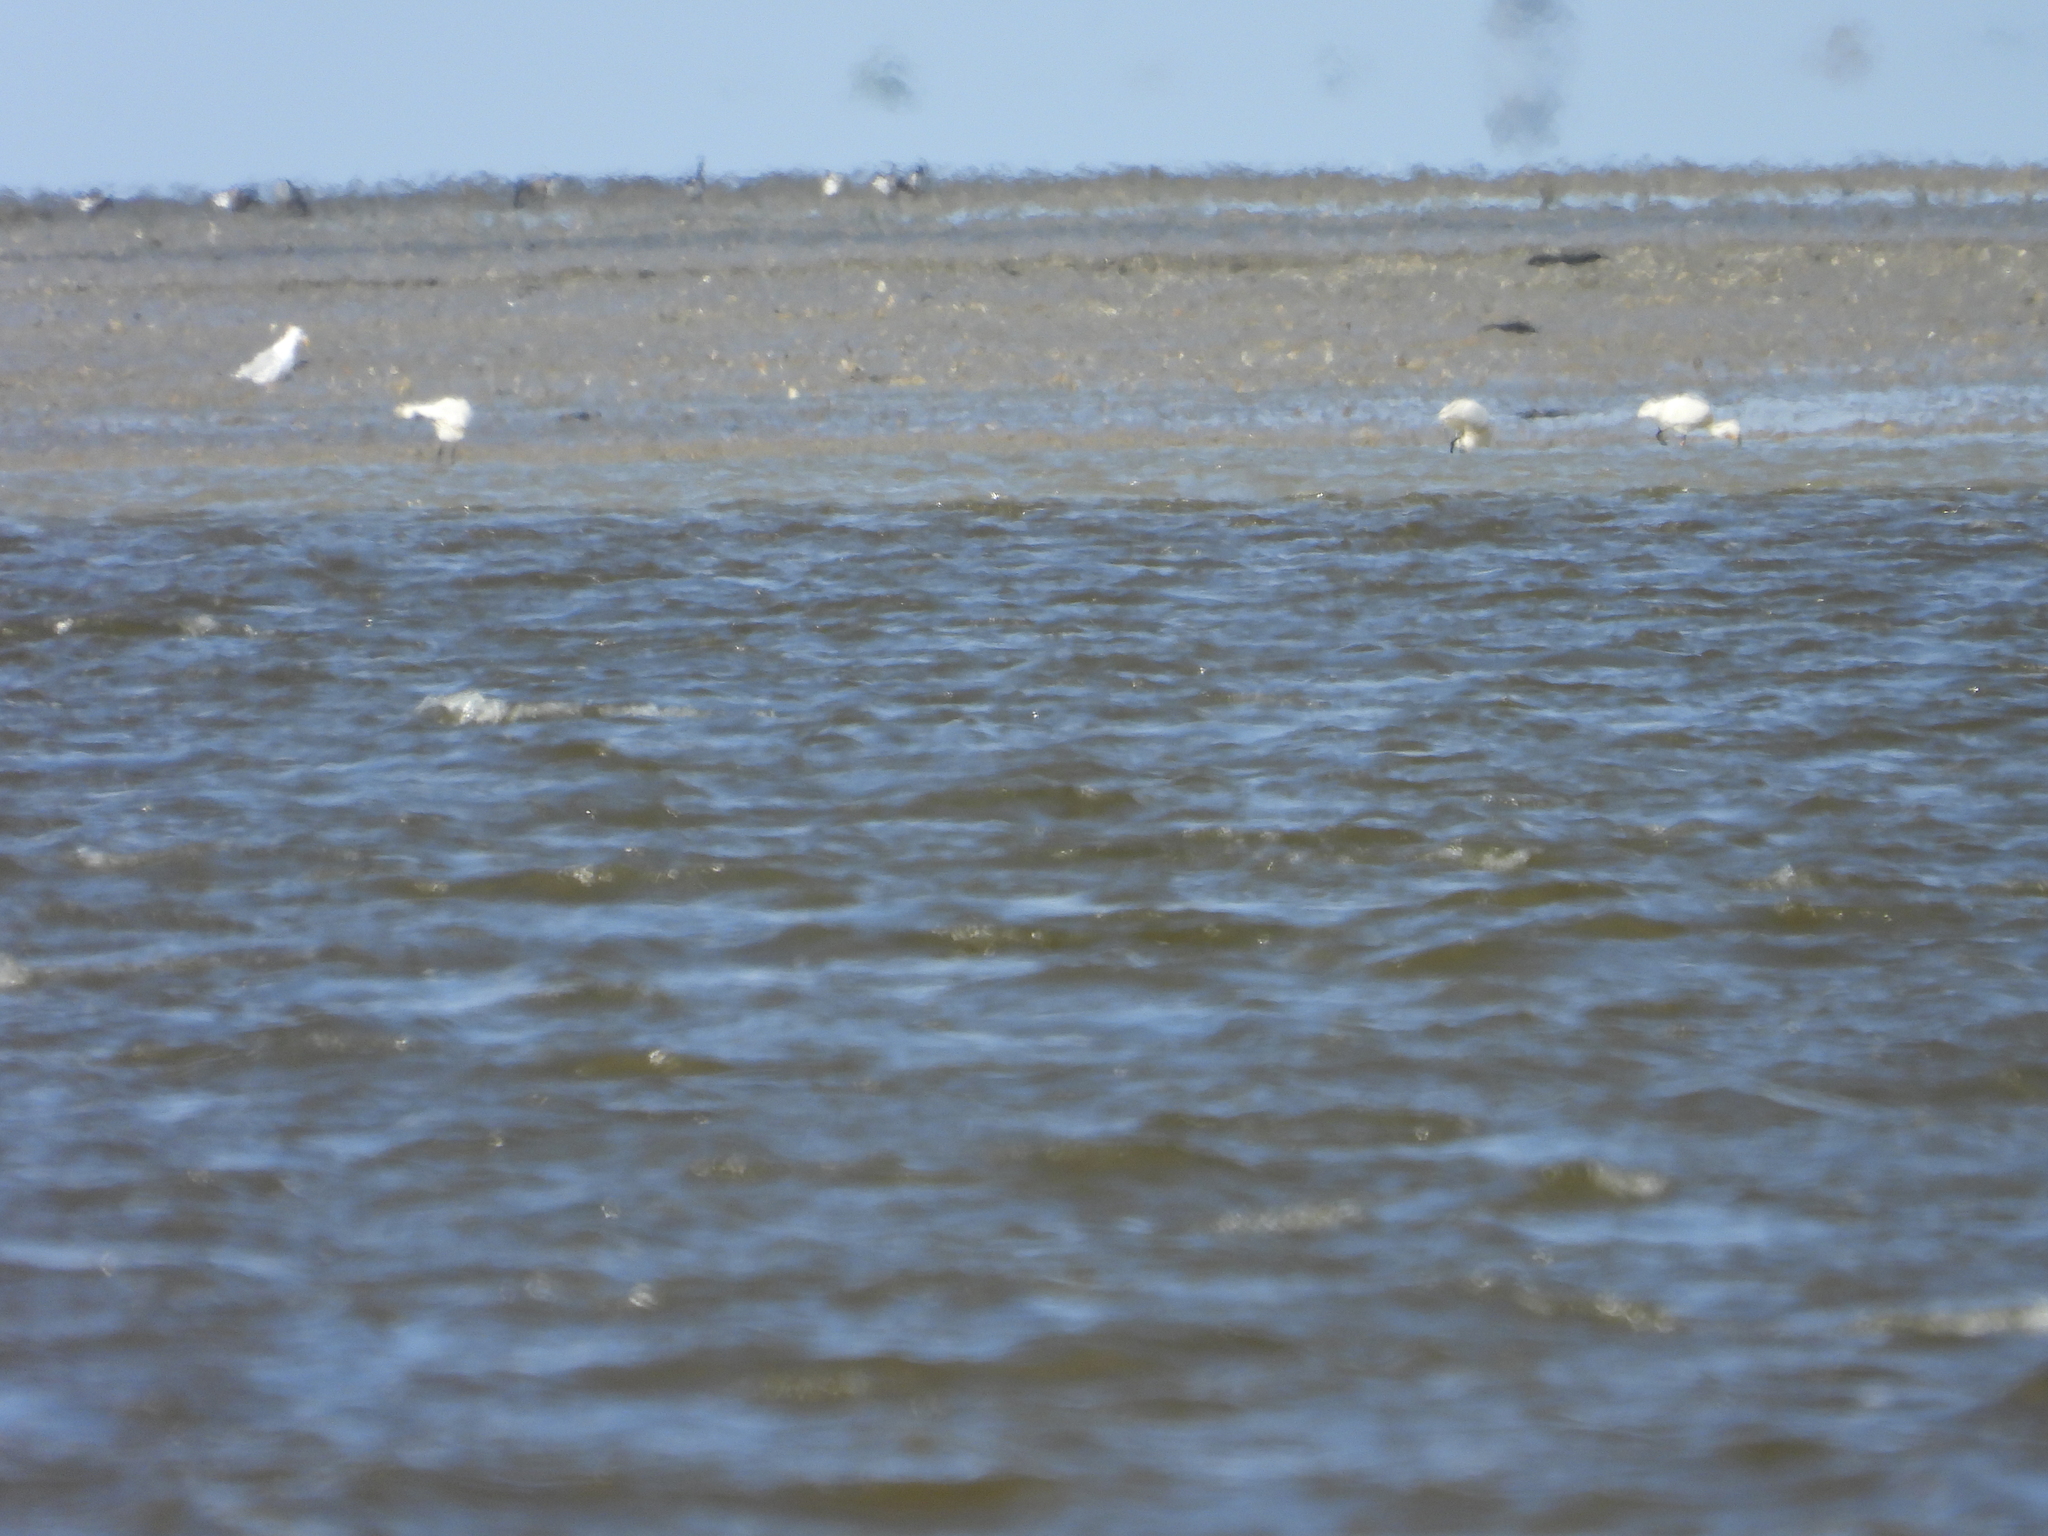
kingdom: Animalia
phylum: Chordata
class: Aves
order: Pelecaniformes
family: Threskiornithidae
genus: Platalea
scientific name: Platalea leucorodia
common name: Eurasian spoonbill
